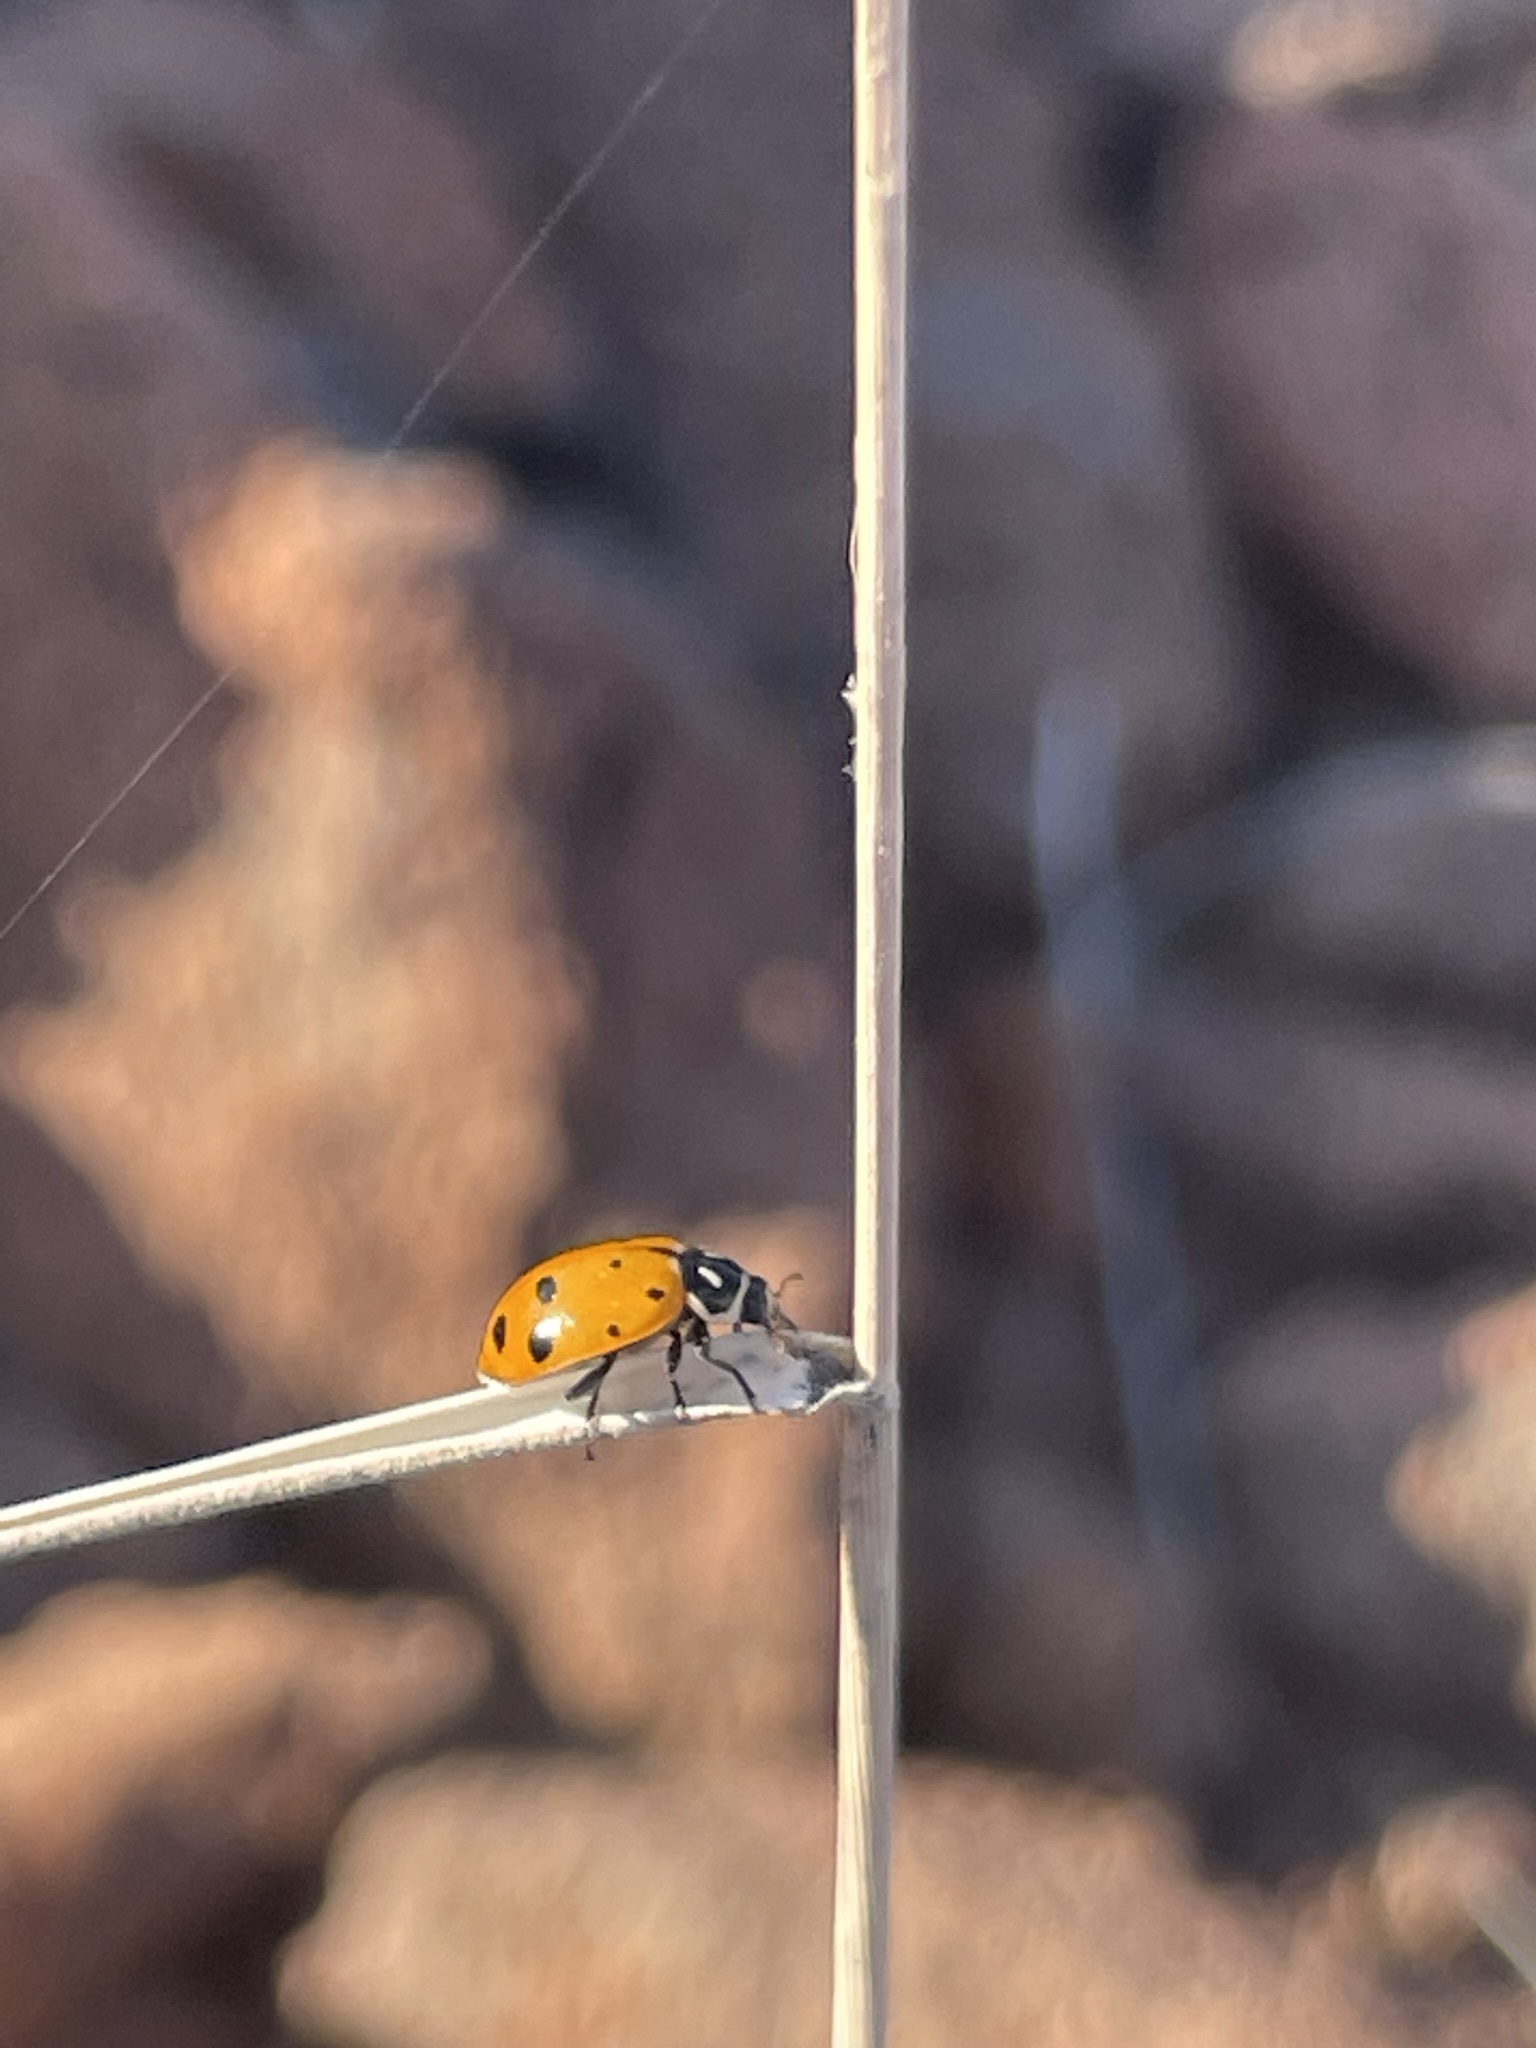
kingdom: Animalia
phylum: Arthropoda
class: Insecta
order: Coleoptera
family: Coccinellidae
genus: Hippodamia
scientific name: Hippodamia convergens
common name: Convergent lady beetle
